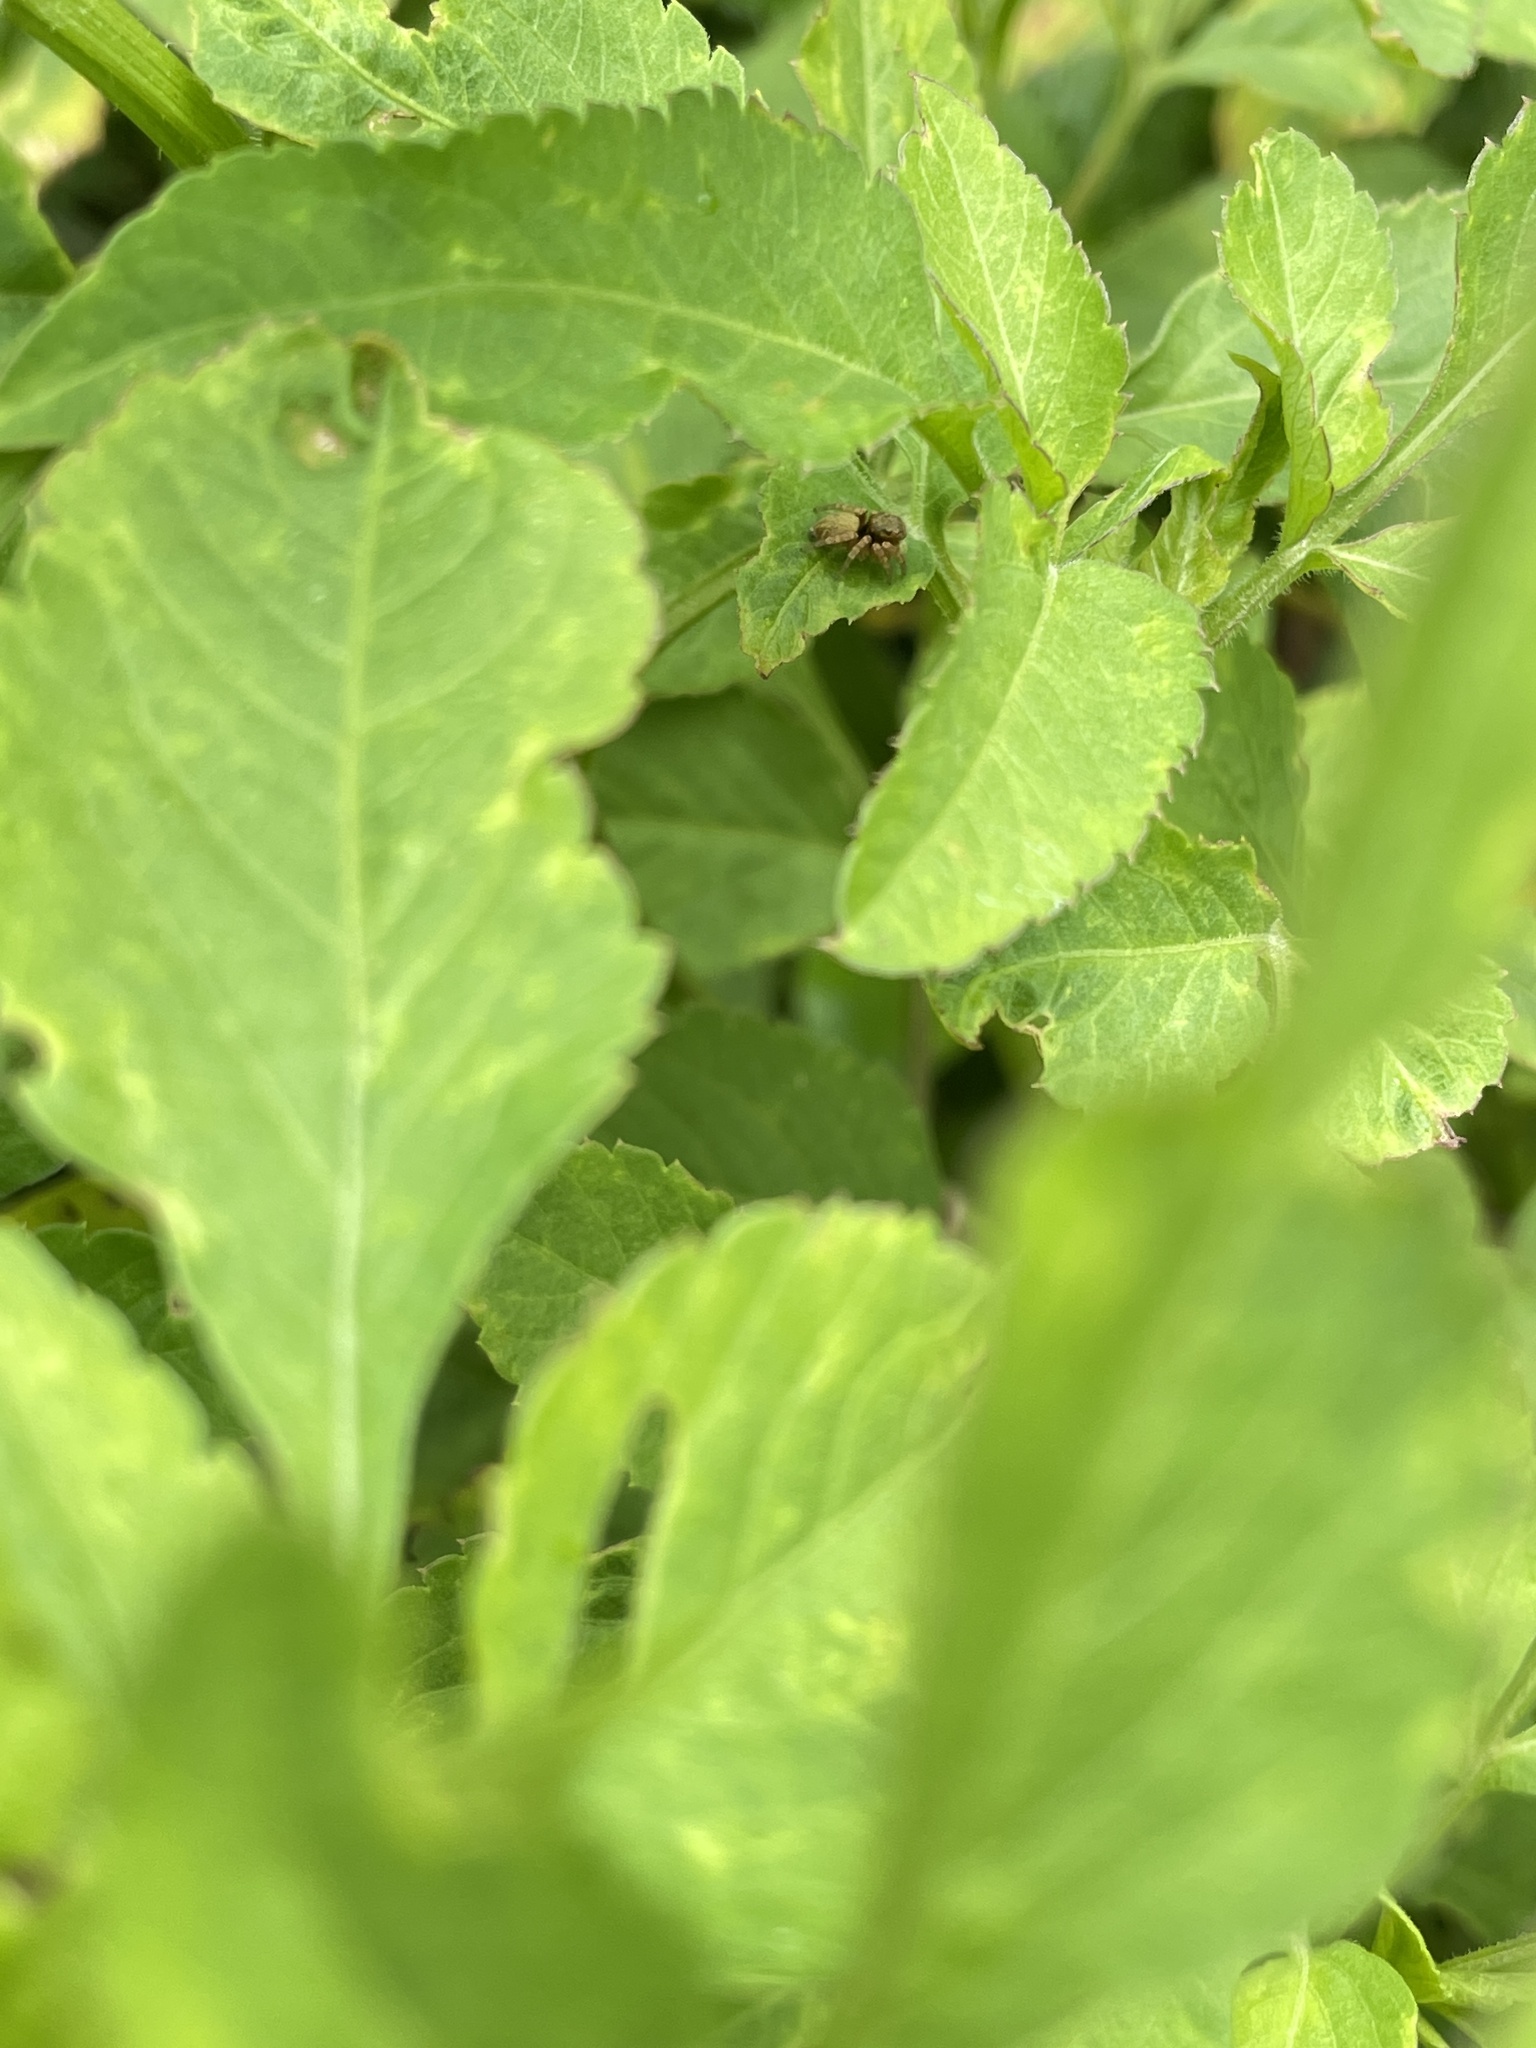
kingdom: Animalia
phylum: Arthropoda
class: Arachnida
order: Araneae
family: Salticidae
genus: Carrhotus
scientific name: Carrhotus sannio
